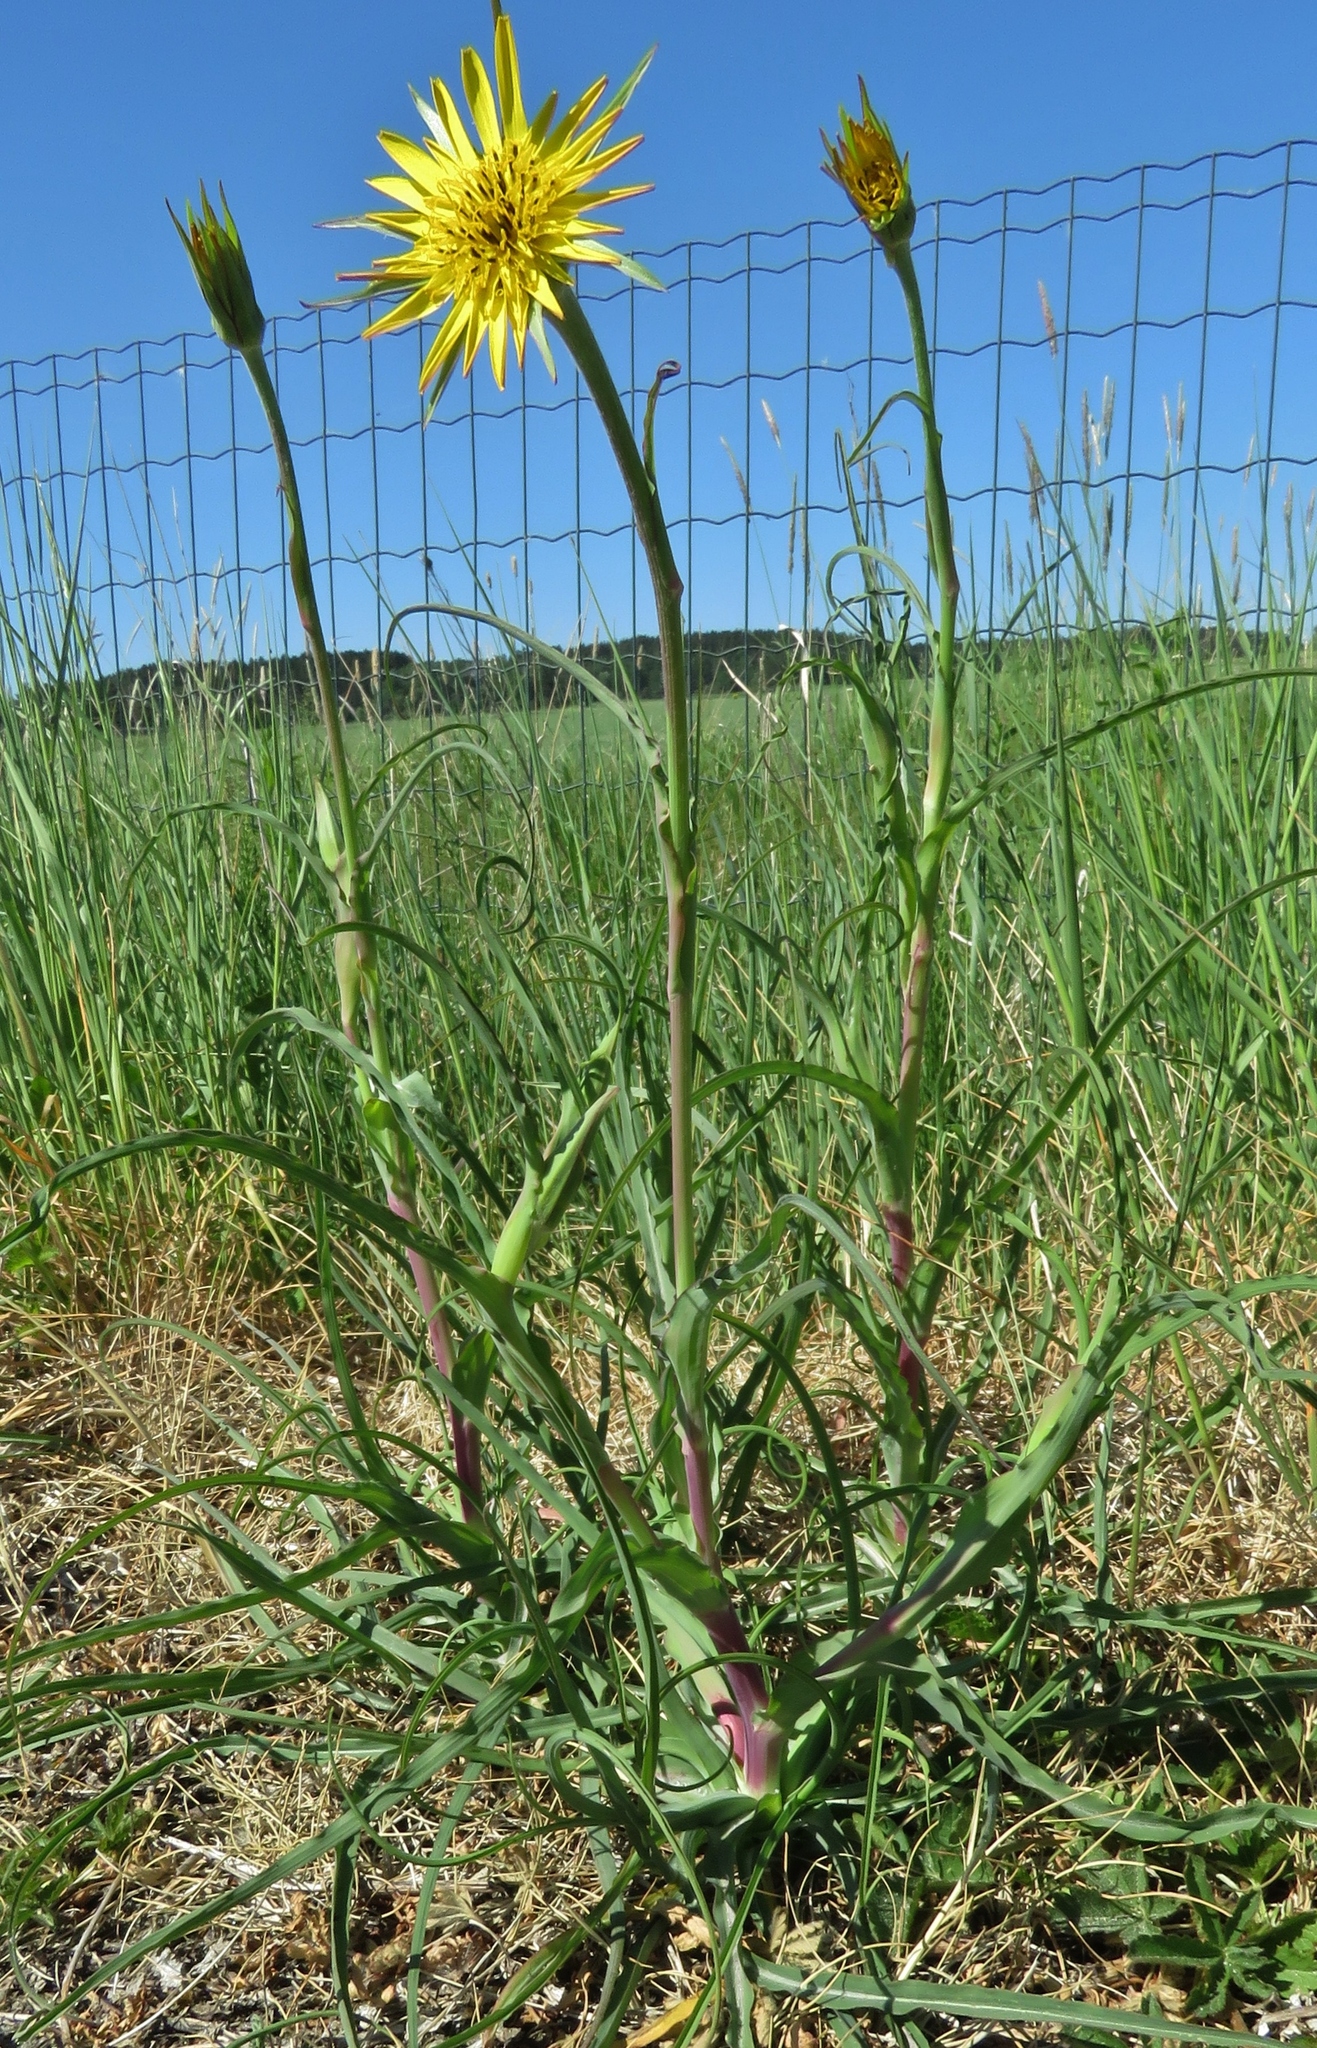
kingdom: Plantae
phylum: Tracheophyta
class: Magnoliopsida
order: Asterales
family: Asteraceae
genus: Tragopogon
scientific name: Tragopogon pratensis
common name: Goat's-beard
